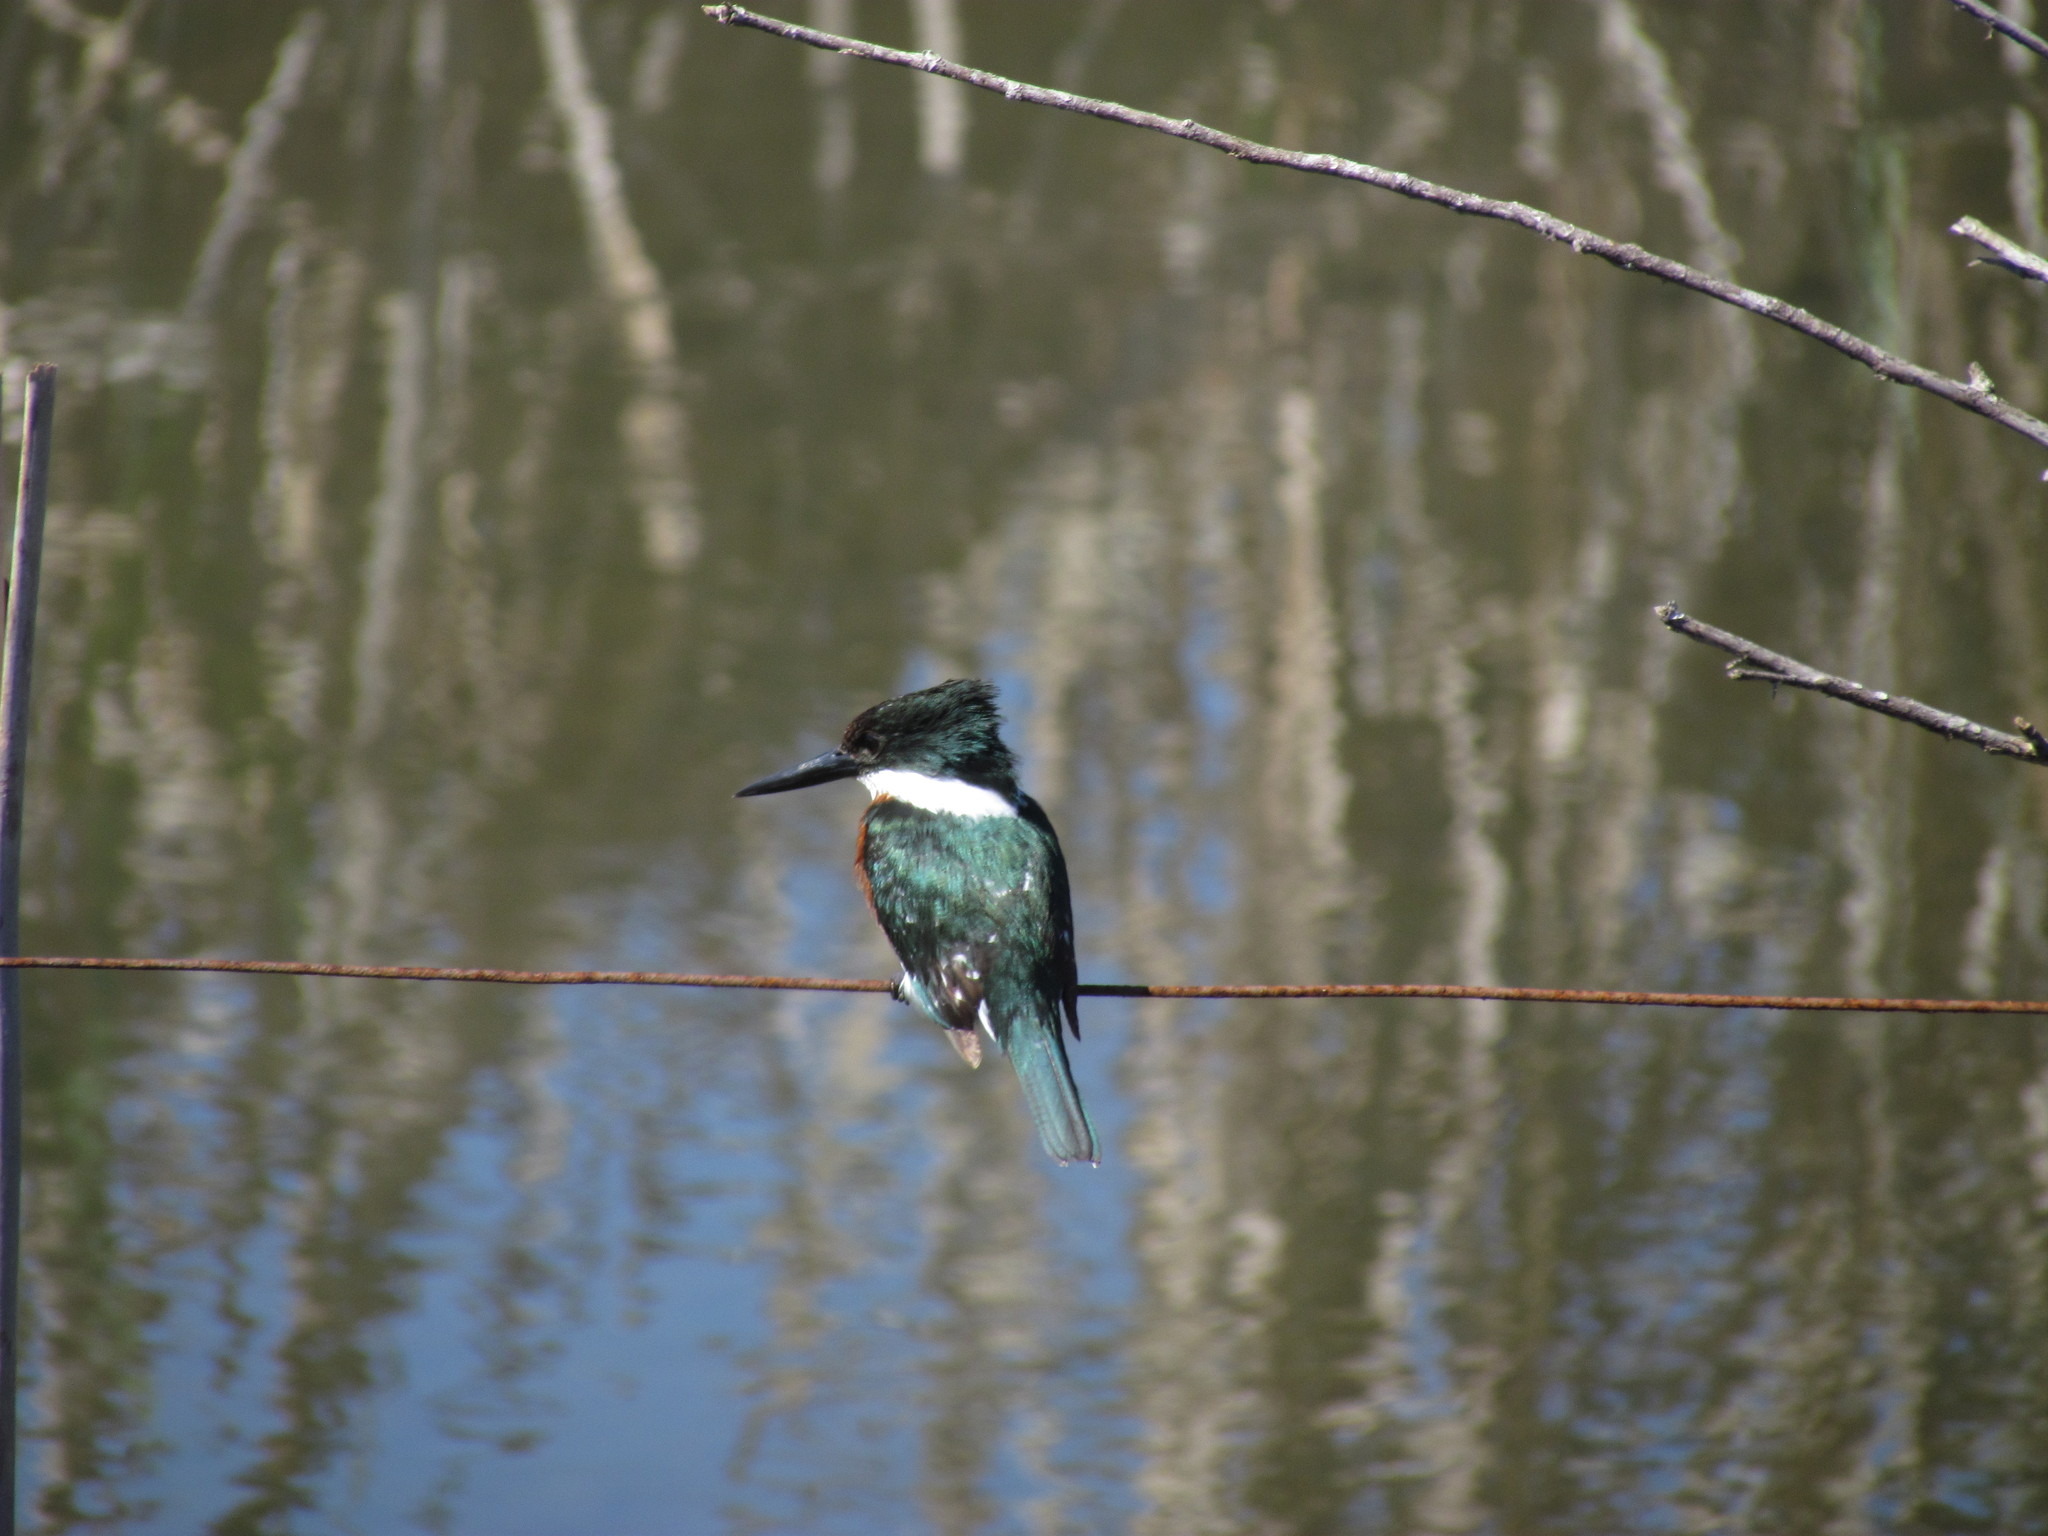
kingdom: Animalia
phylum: Chordata
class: Aves
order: Coraciiformes
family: Alcedinidae
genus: Chloroceryle
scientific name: Chloroceryle americana
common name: Green kingfisher
